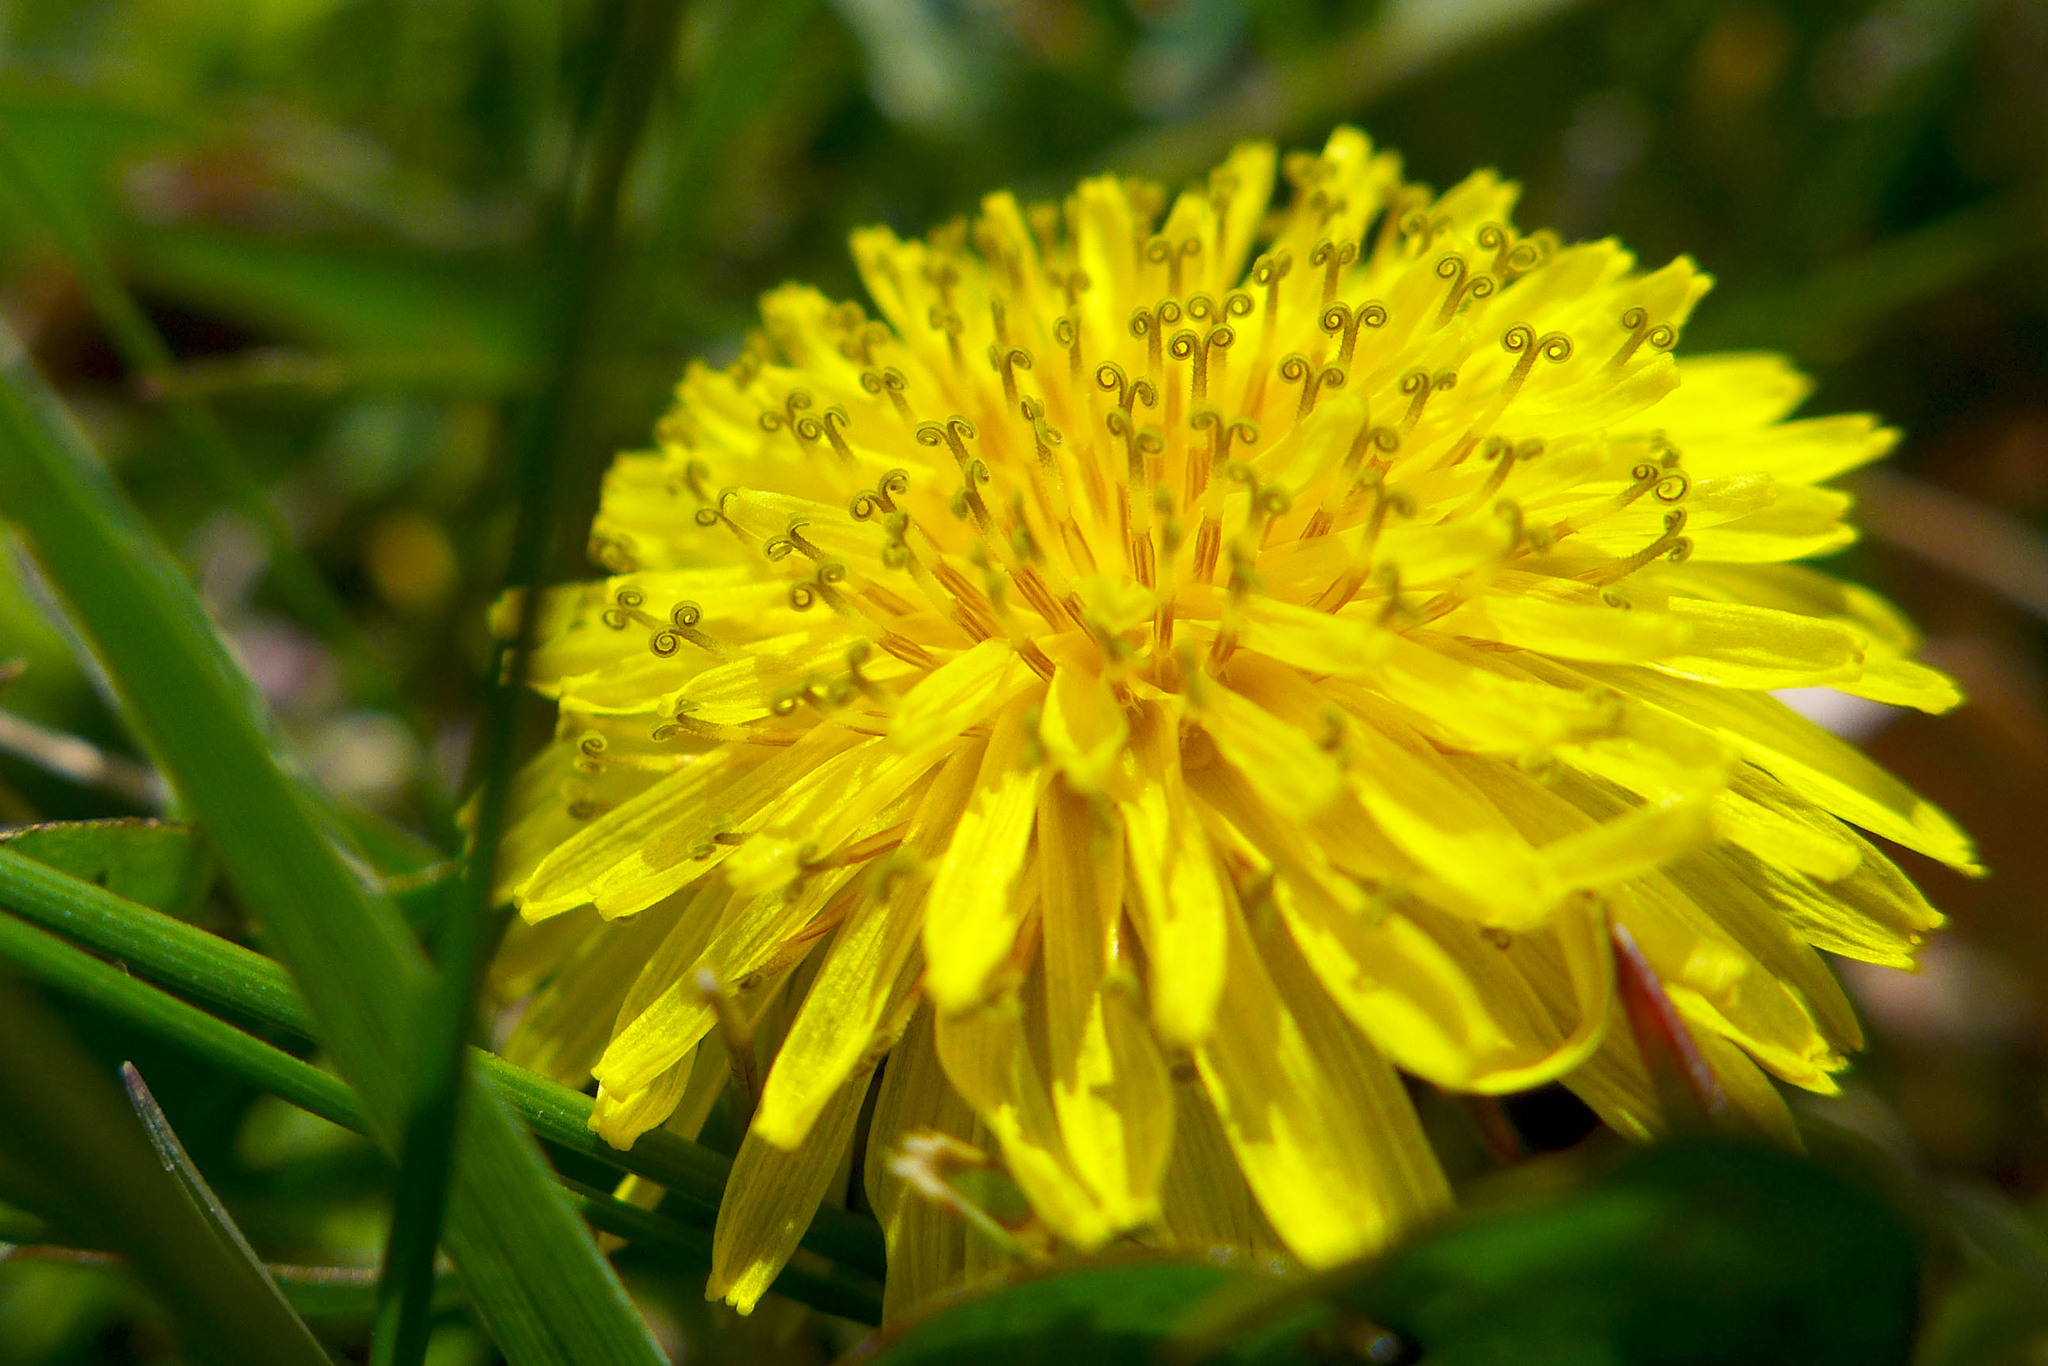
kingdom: Plantae
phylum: Tracheophyta
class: Magnoliopsida
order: Asterales
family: Asteraceae
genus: Taraxacum
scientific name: Taraxacum officinale
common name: Common dandelion
